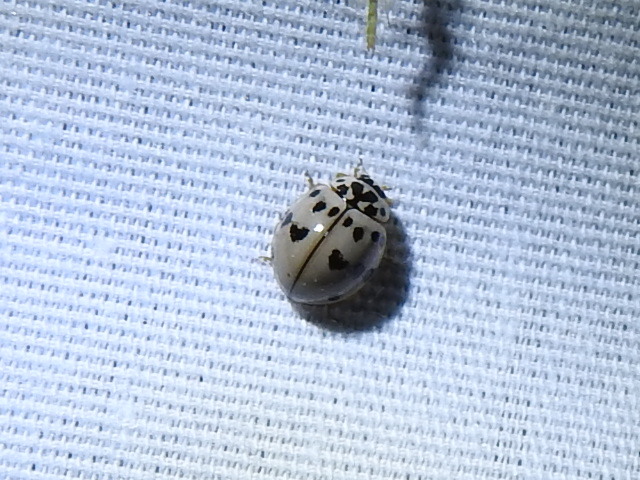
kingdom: Animalia
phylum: Arthropoda
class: Insecta
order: Coleoptera
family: Coccinellidae
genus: Olla
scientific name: Olla v-nigrum
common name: Ashy gray lady beetle
